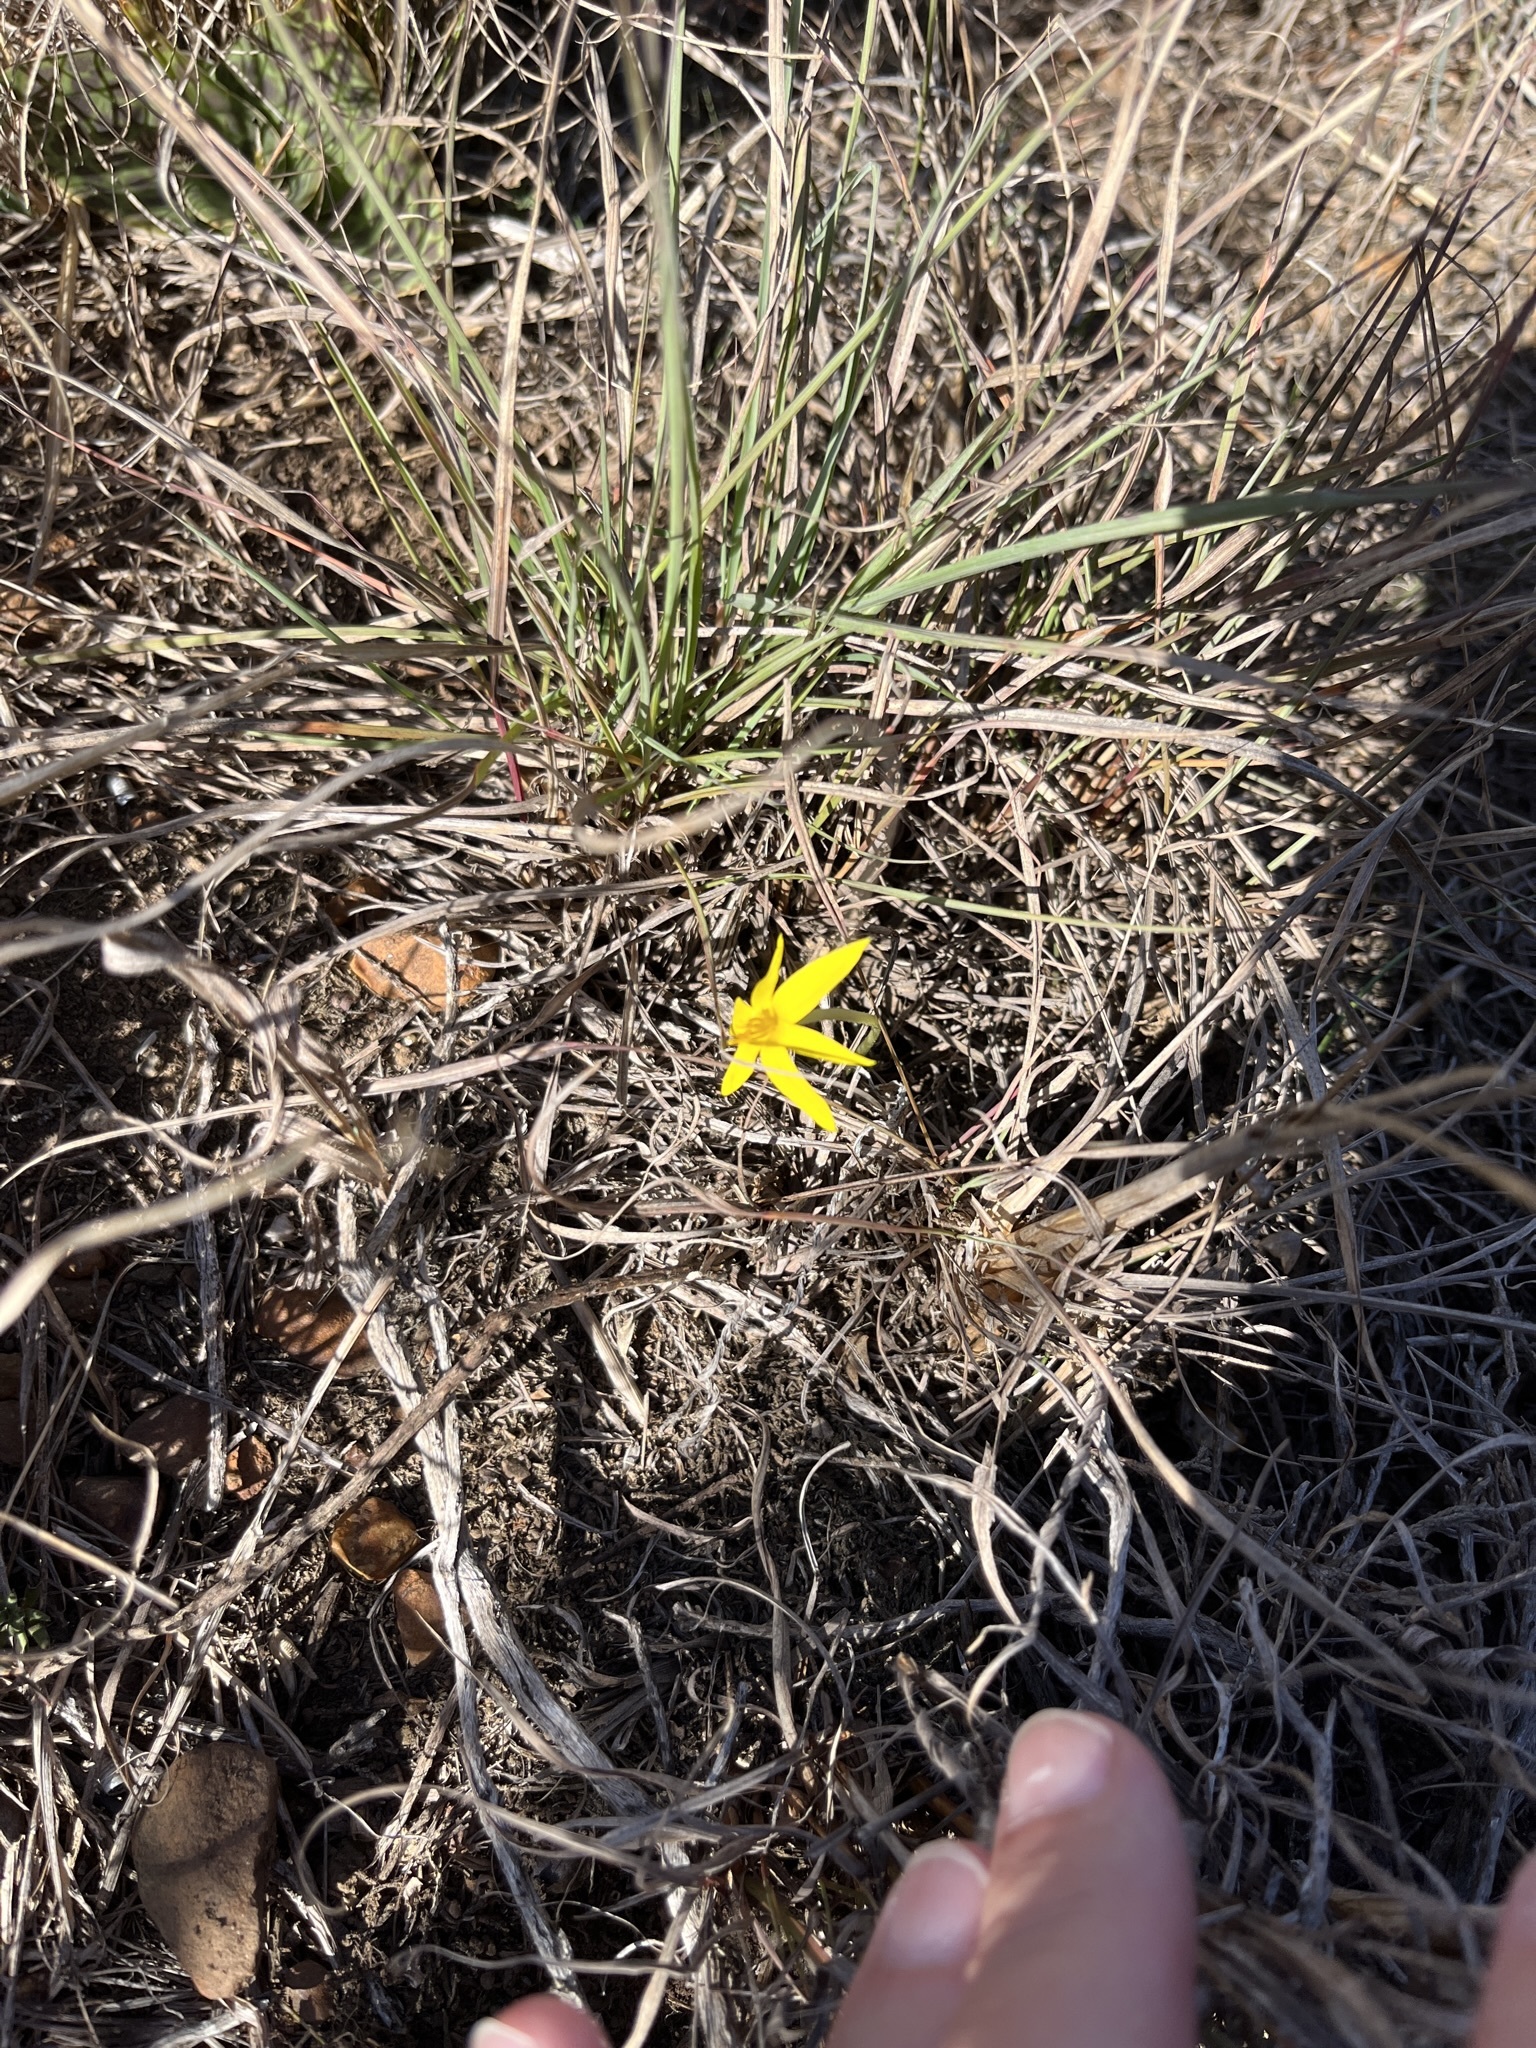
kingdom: Plantae
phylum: Tracheophyta
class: Liliopsida
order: Asparagales
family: Hypoxidaceae
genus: Empodium
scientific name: Empodium plicatum
